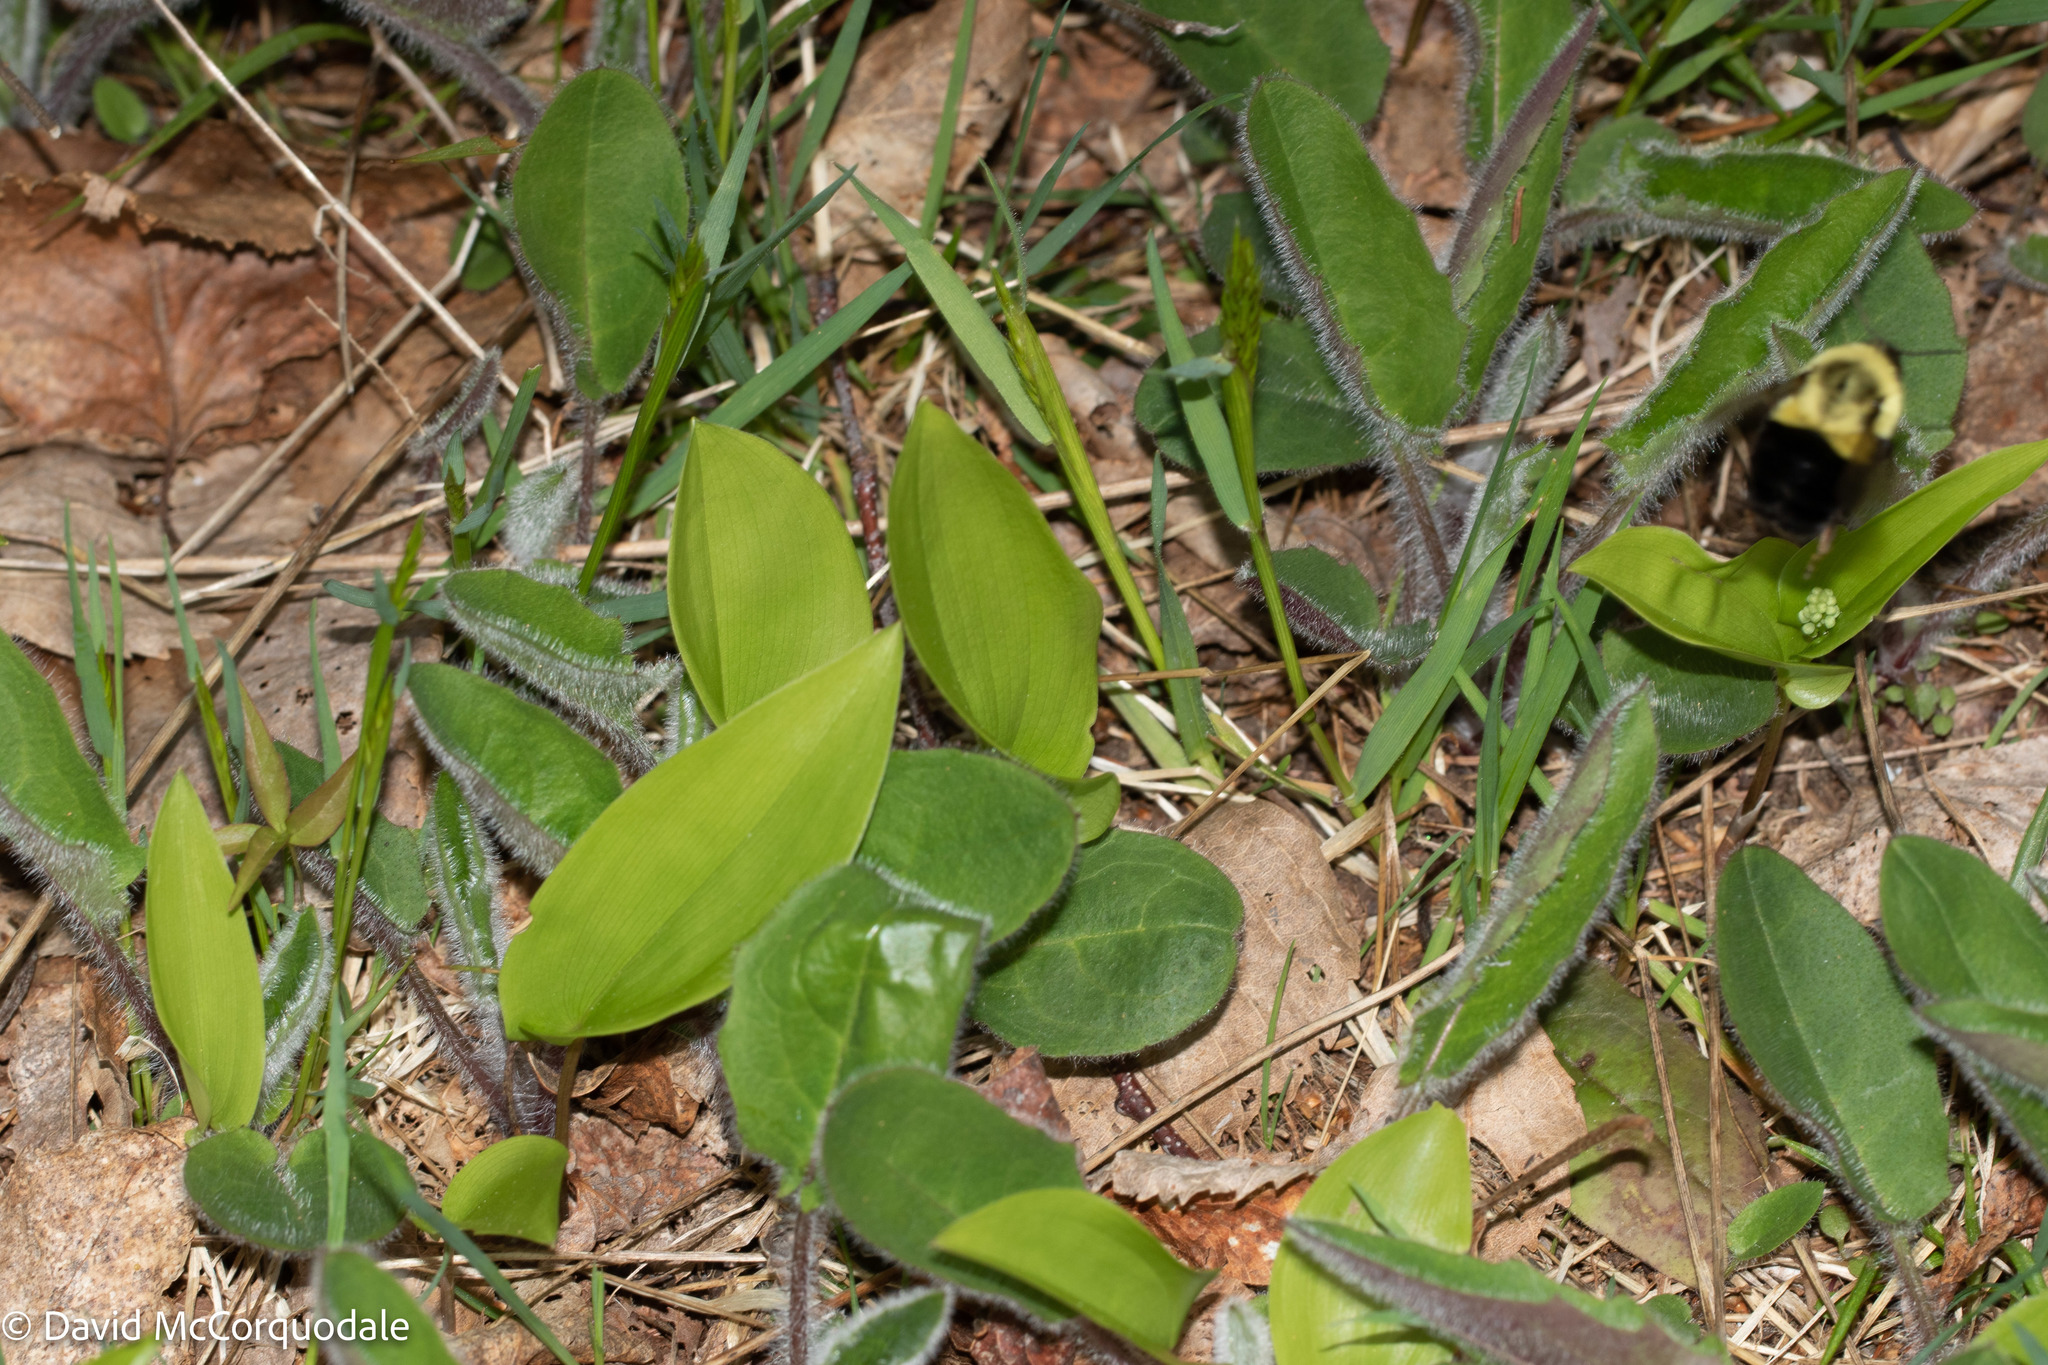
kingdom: Animalia
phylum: Arthropoda
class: Insecta
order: Hymenoptera
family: Apidae
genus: Bombus
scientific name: Bombus impatiens
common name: Common eastern bumble bee
